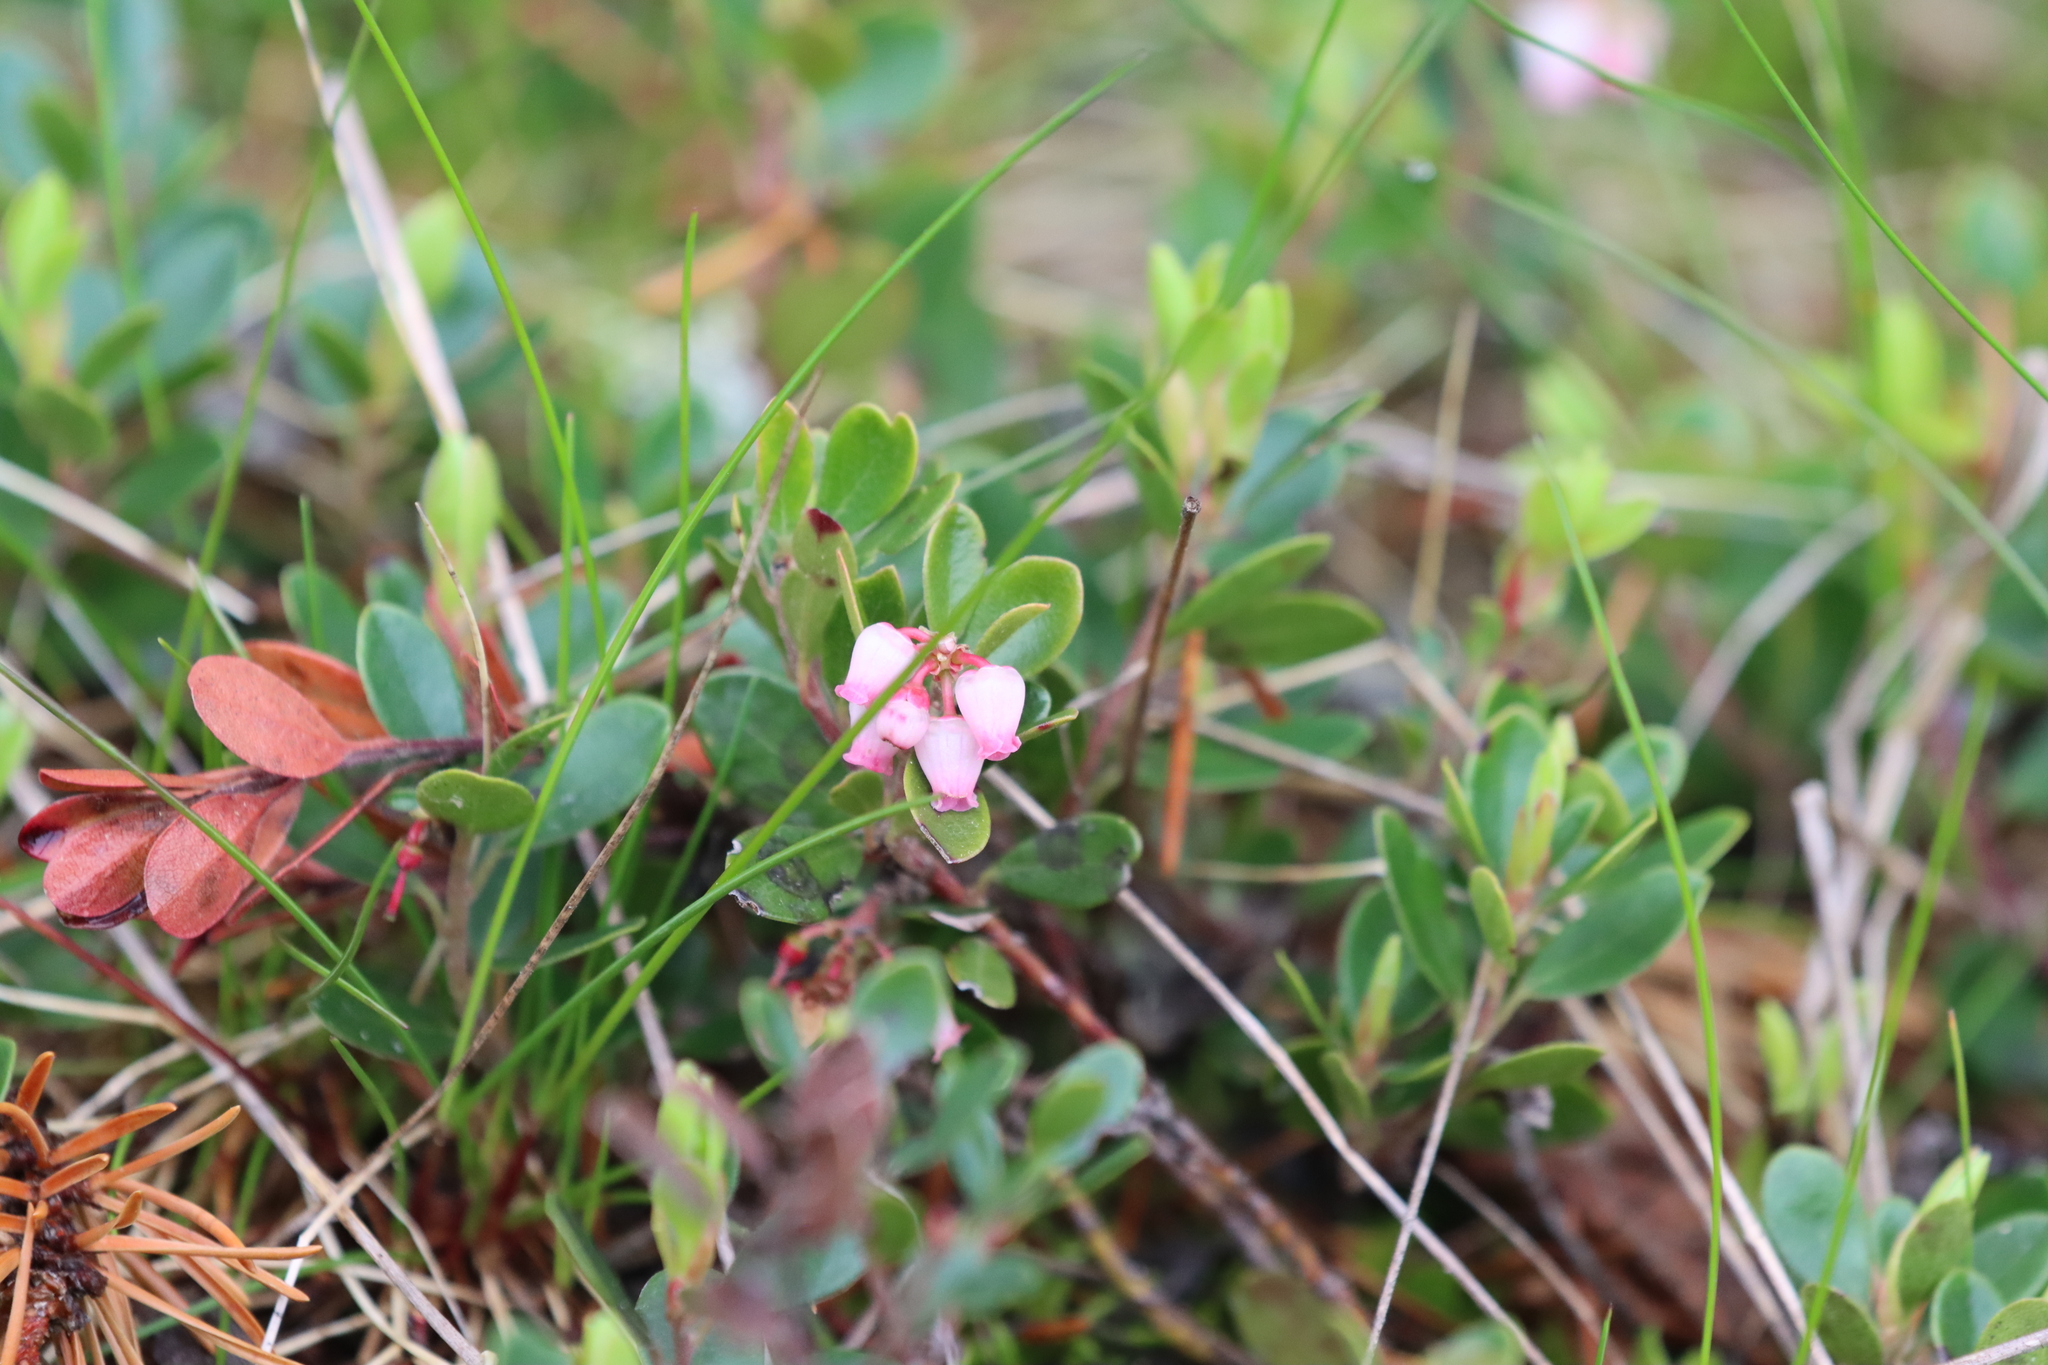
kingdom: Plantae
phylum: Tracheophyta
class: Magnoliopsida
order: Ericales
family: Ericaceae
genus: Arctostaphylos
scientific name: Arctostaphylos uva-ursi
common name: Bearberry
